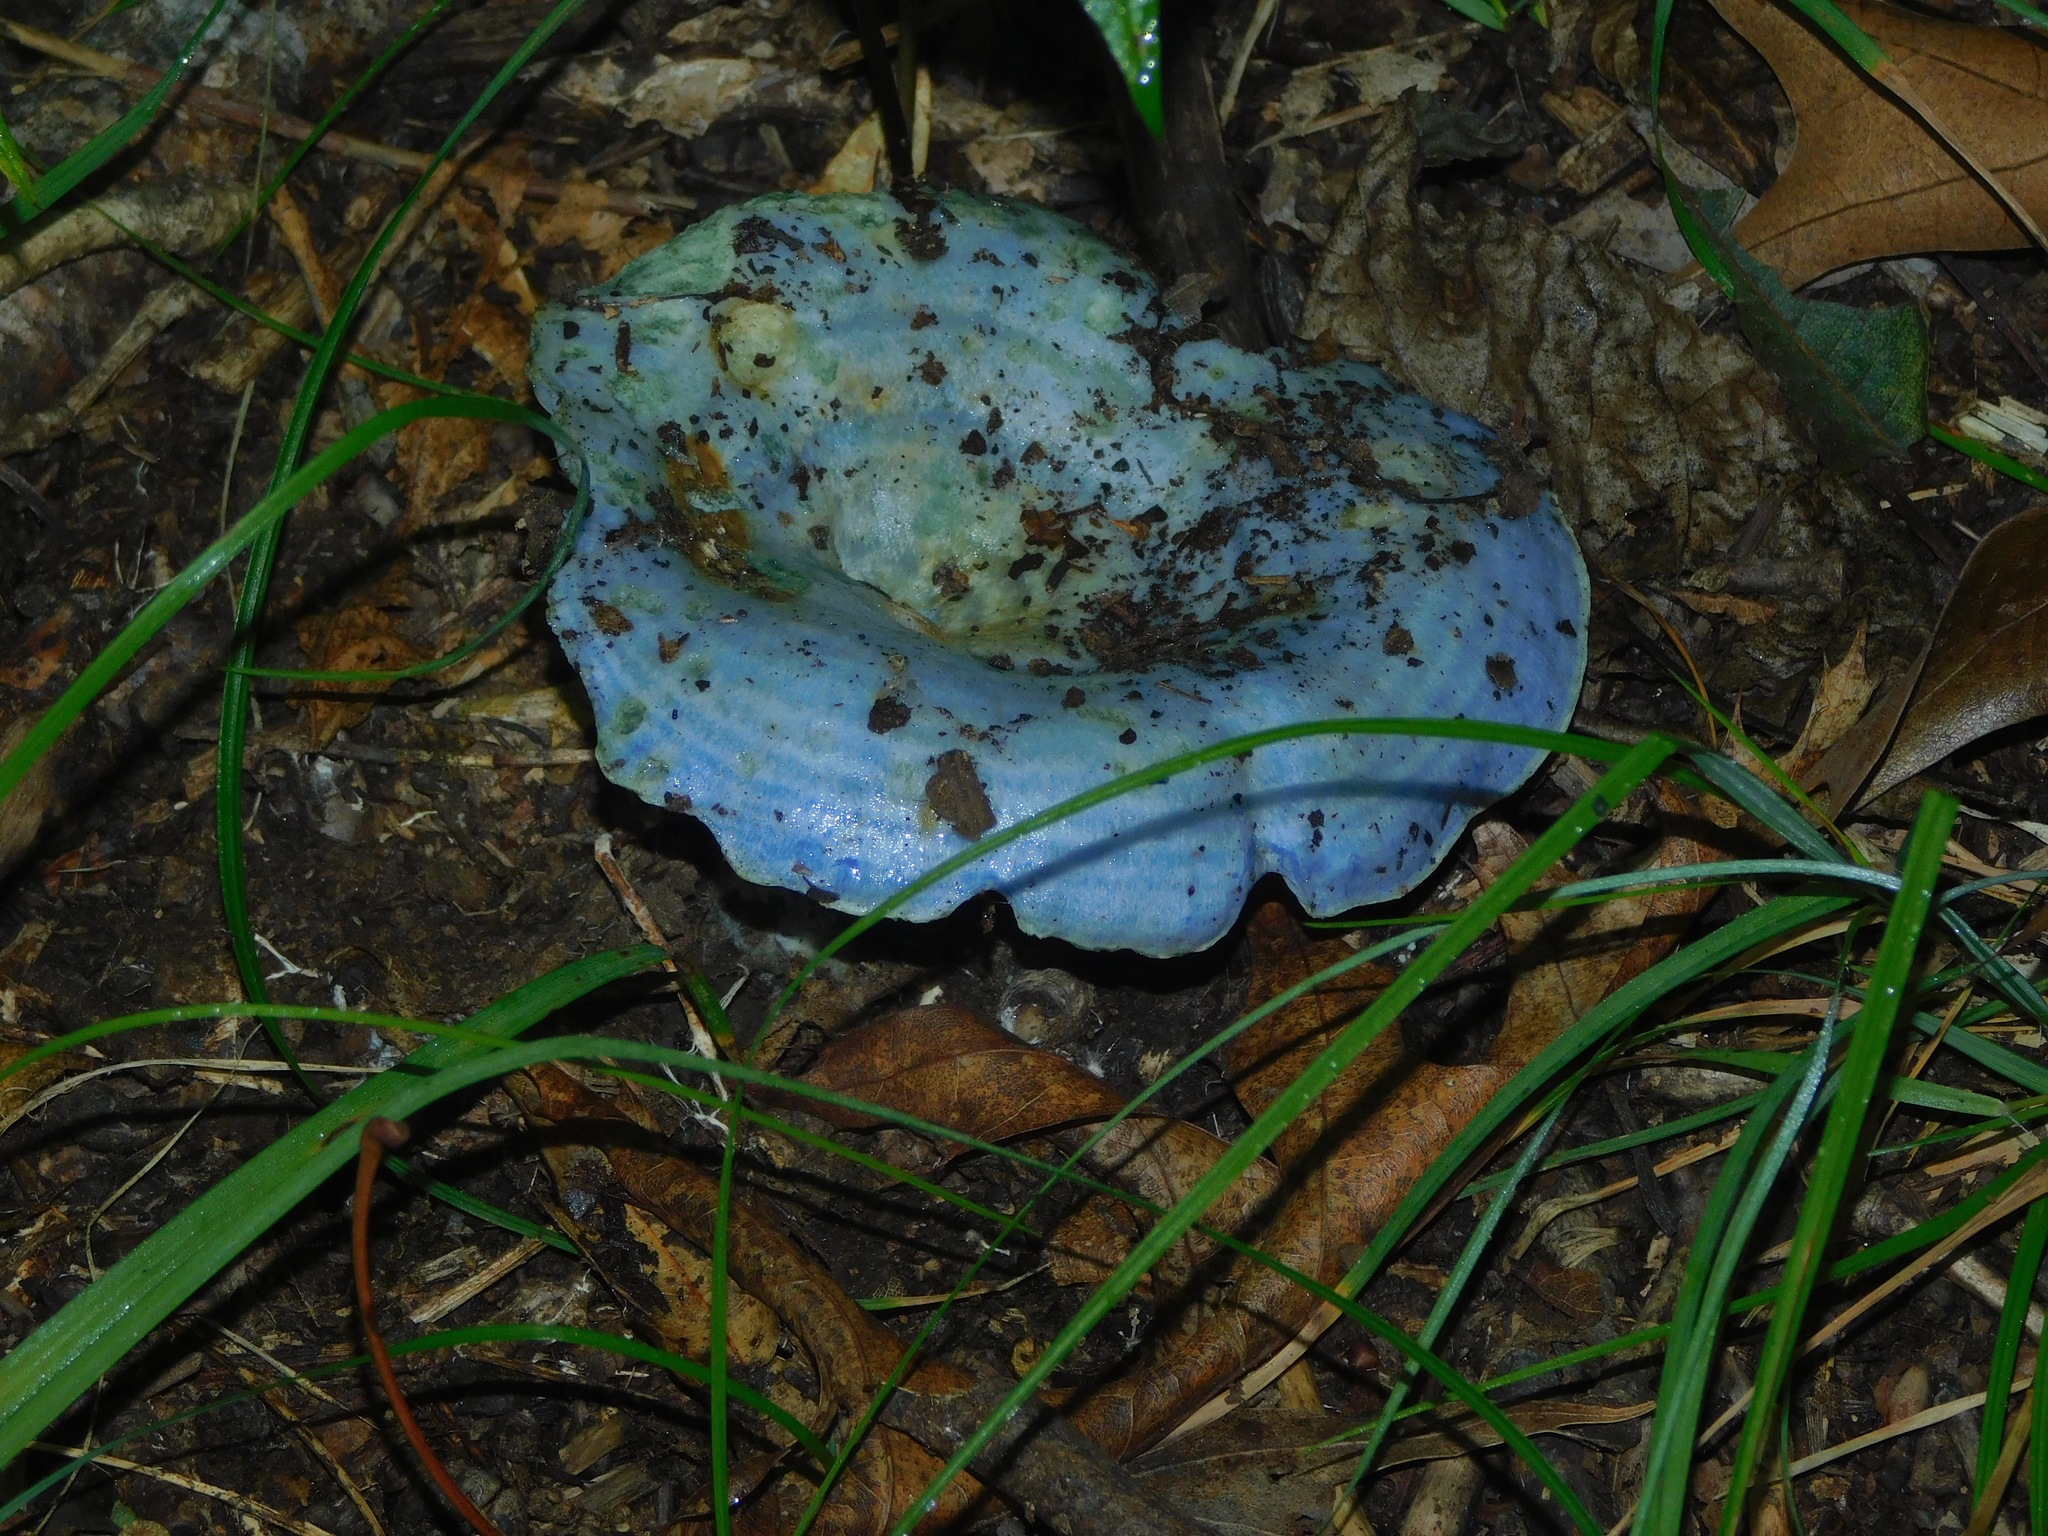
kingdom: Fungi
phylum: Basidiomycota
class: Agaricomycetes
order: Russulales
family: Russulaceae
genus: Lactarius
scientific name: Lactarius indigo
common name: Indigo milk cap
